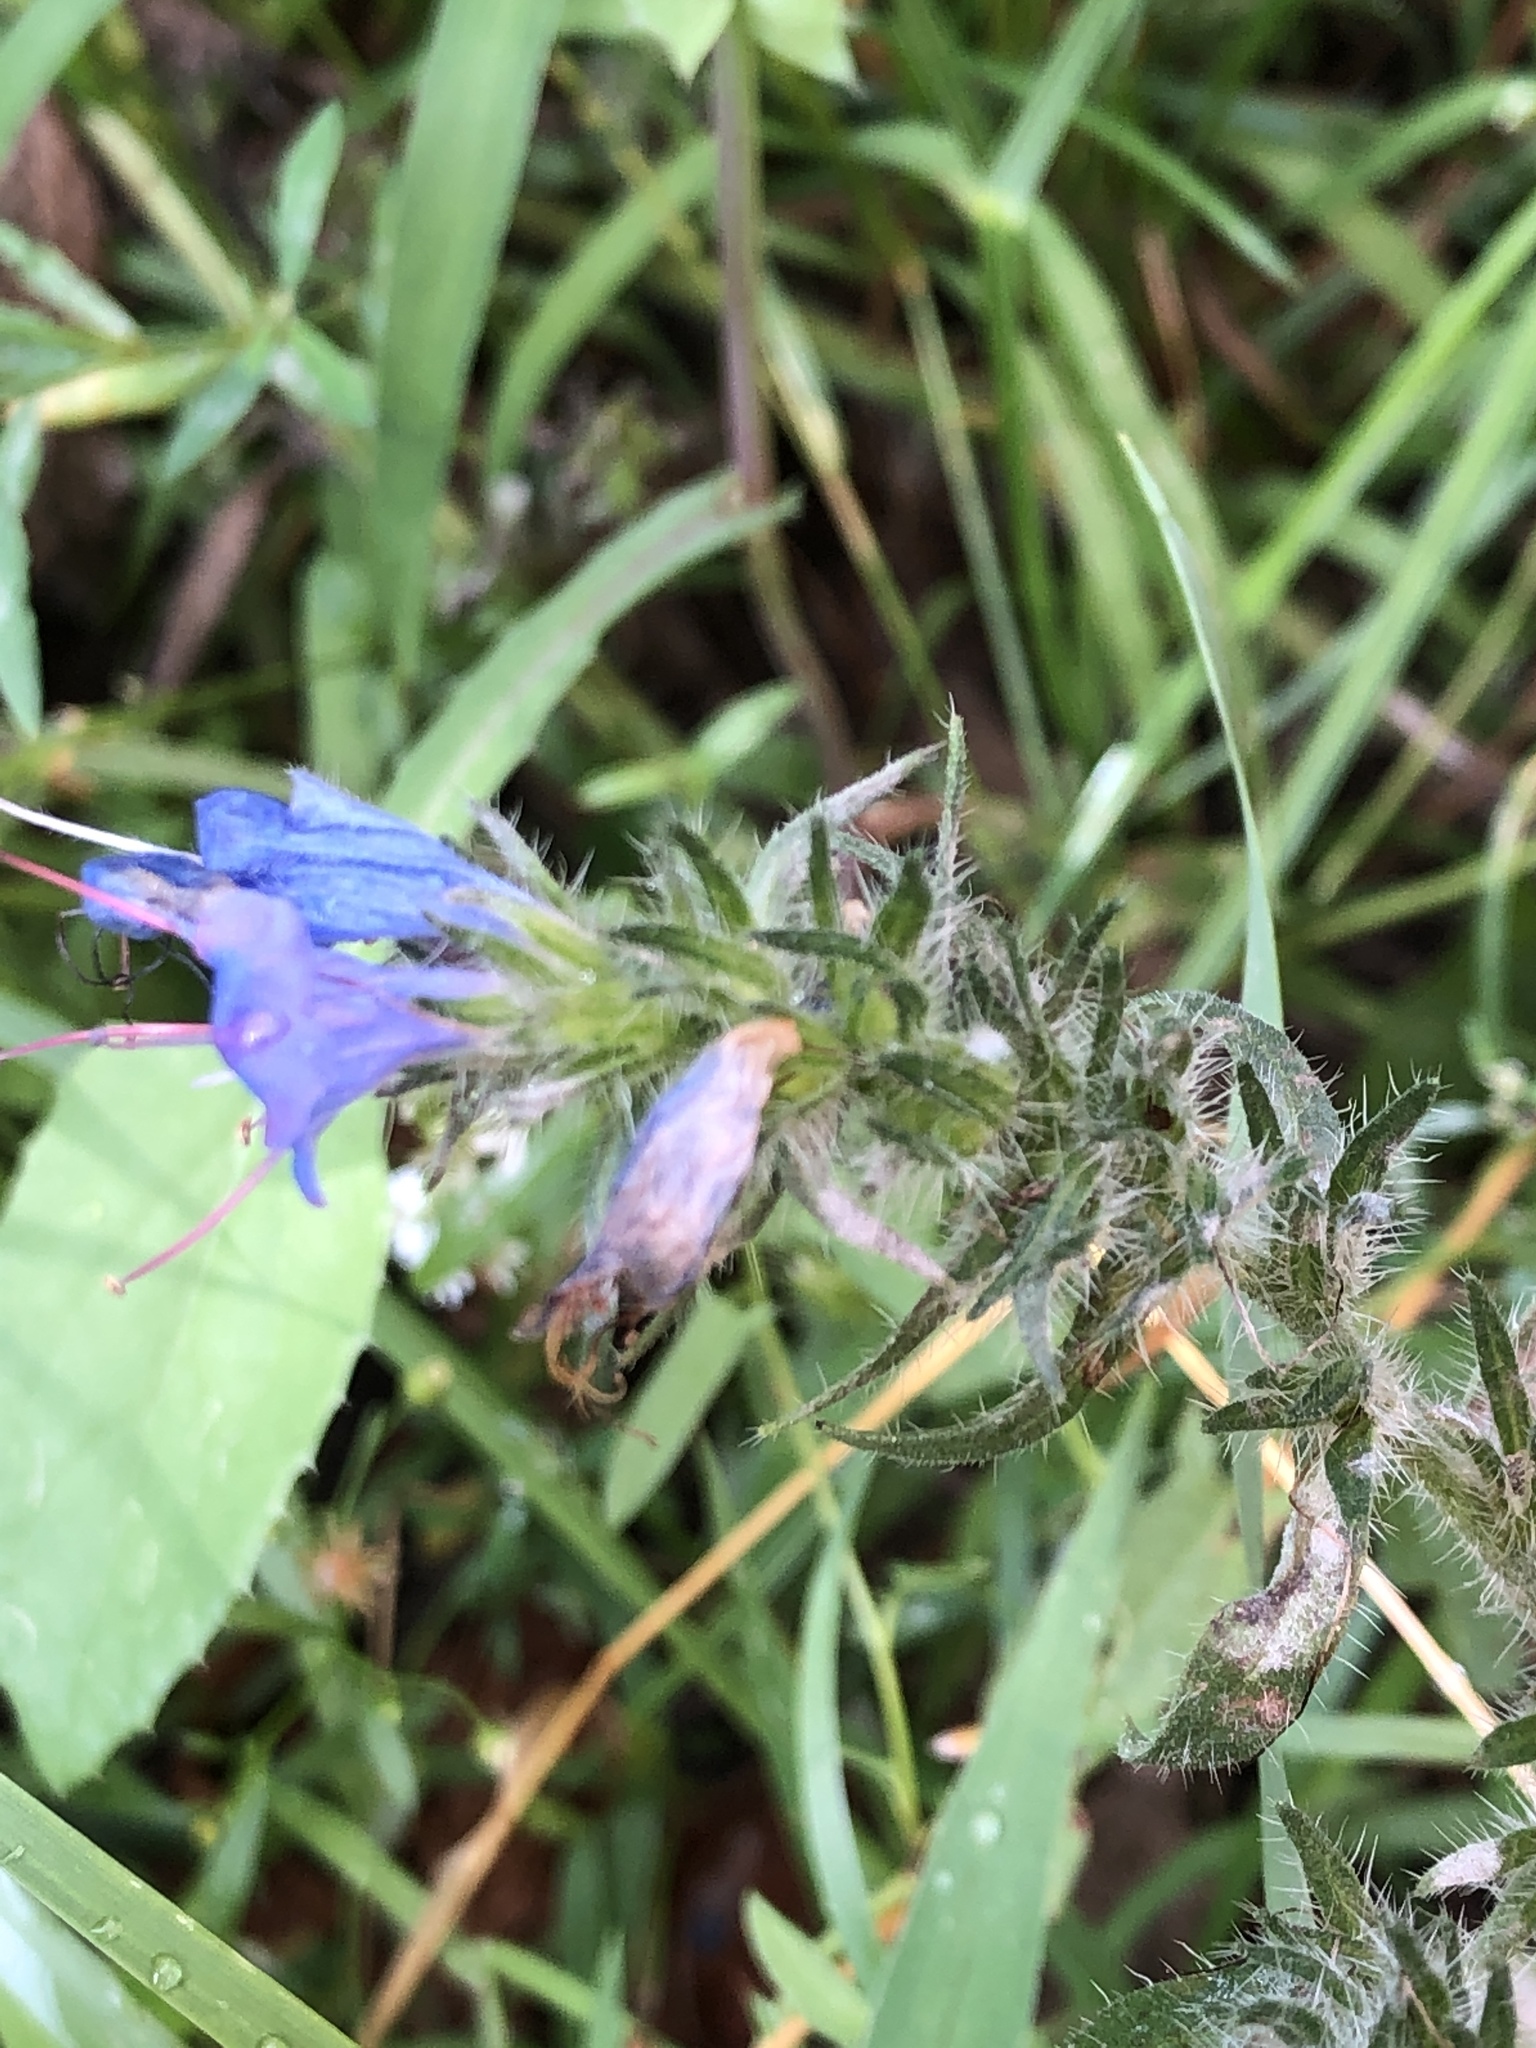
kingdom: Plantae
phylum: Tracheophyta
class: Magnoliopsida
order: Boraginales
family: Boraginaceae
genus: Echium
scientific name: Echium vulgare
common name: Common viper's bugloss
